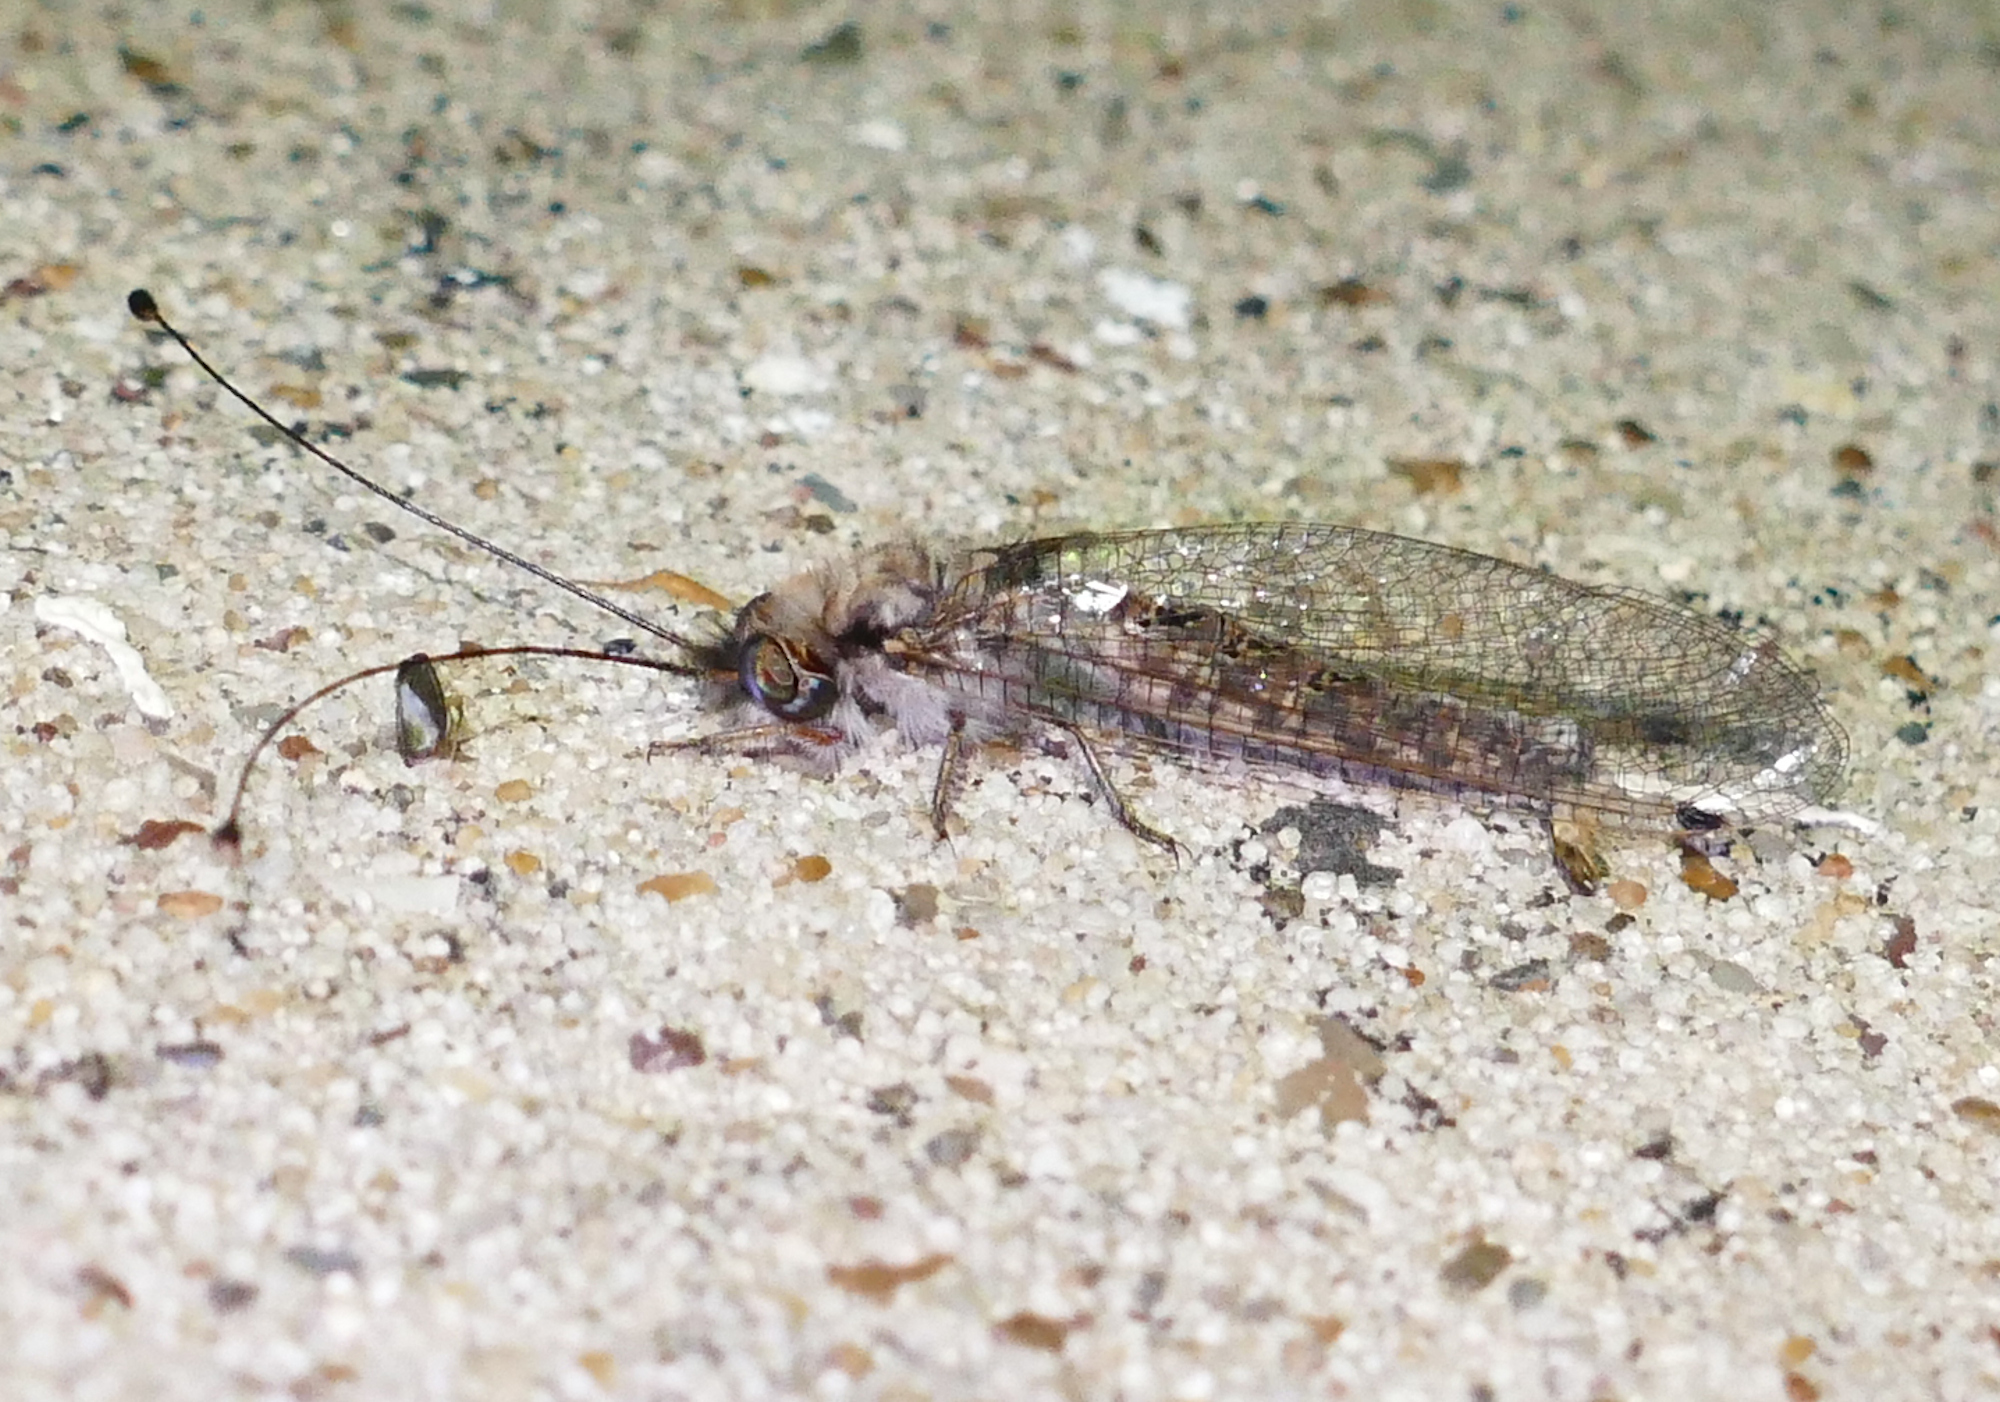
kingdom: Animalia
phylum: Arthropoda
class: Insecta
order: Neuroptera
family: Ascalaphidae
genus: Ululodes
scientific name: Ululodes macleayanus
